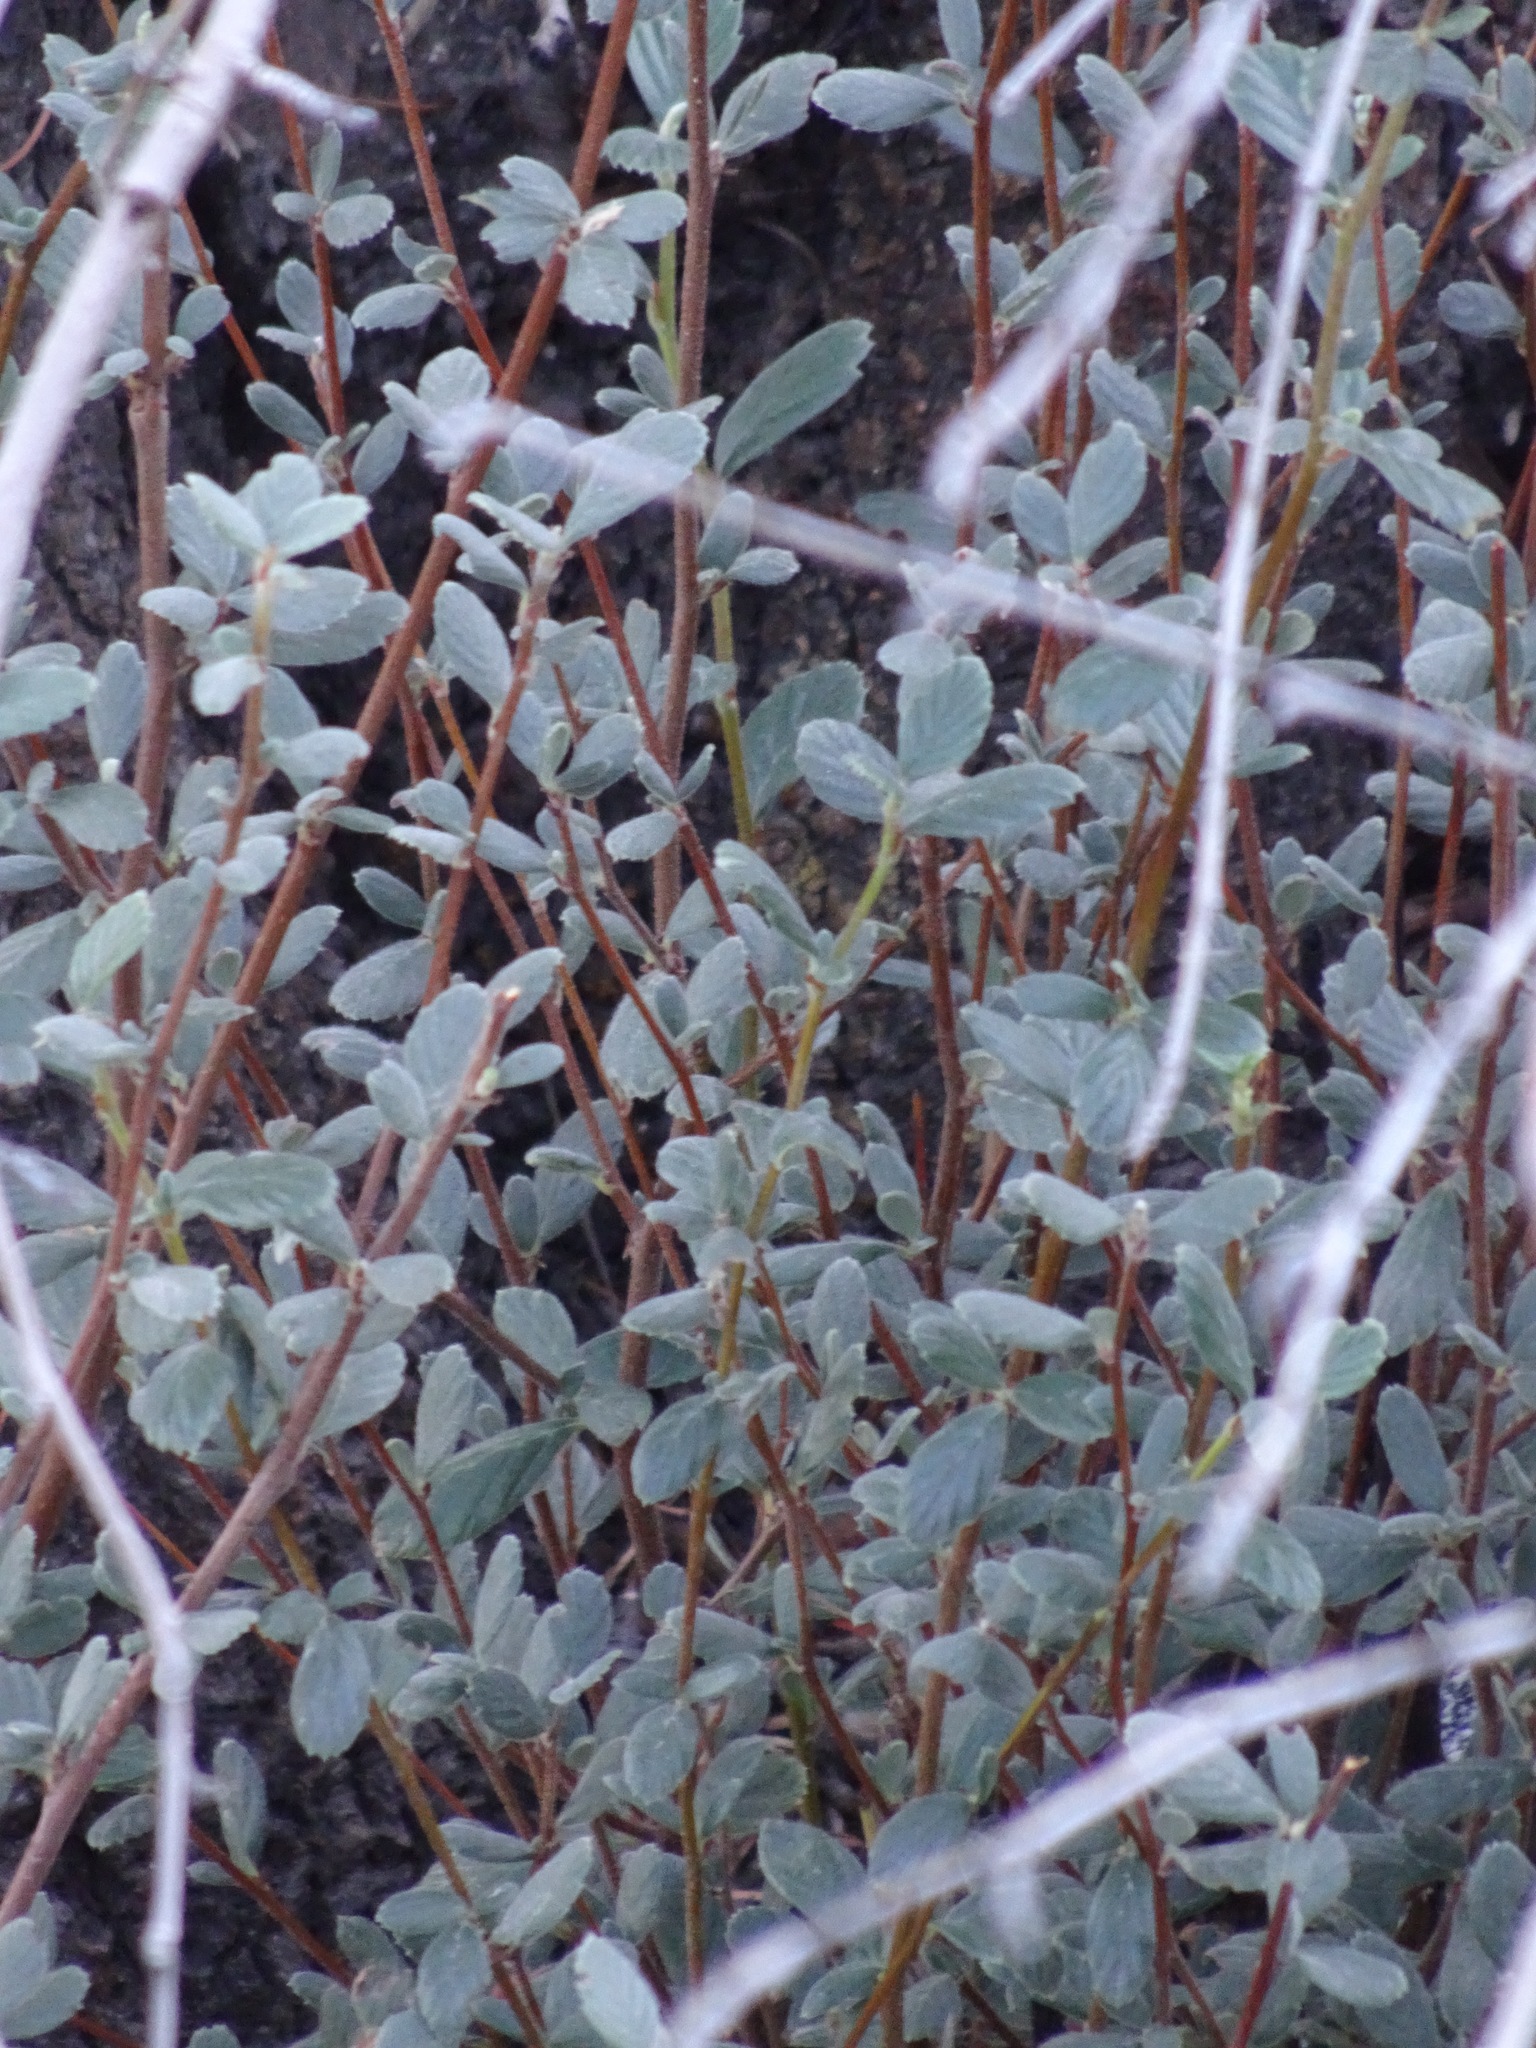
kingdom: Plantae
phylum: Tracheophyta
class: Magnoliopsida
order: Rosales
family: Rosaceae
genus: Cercocarpus
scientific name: Cercocarpus betuloides
